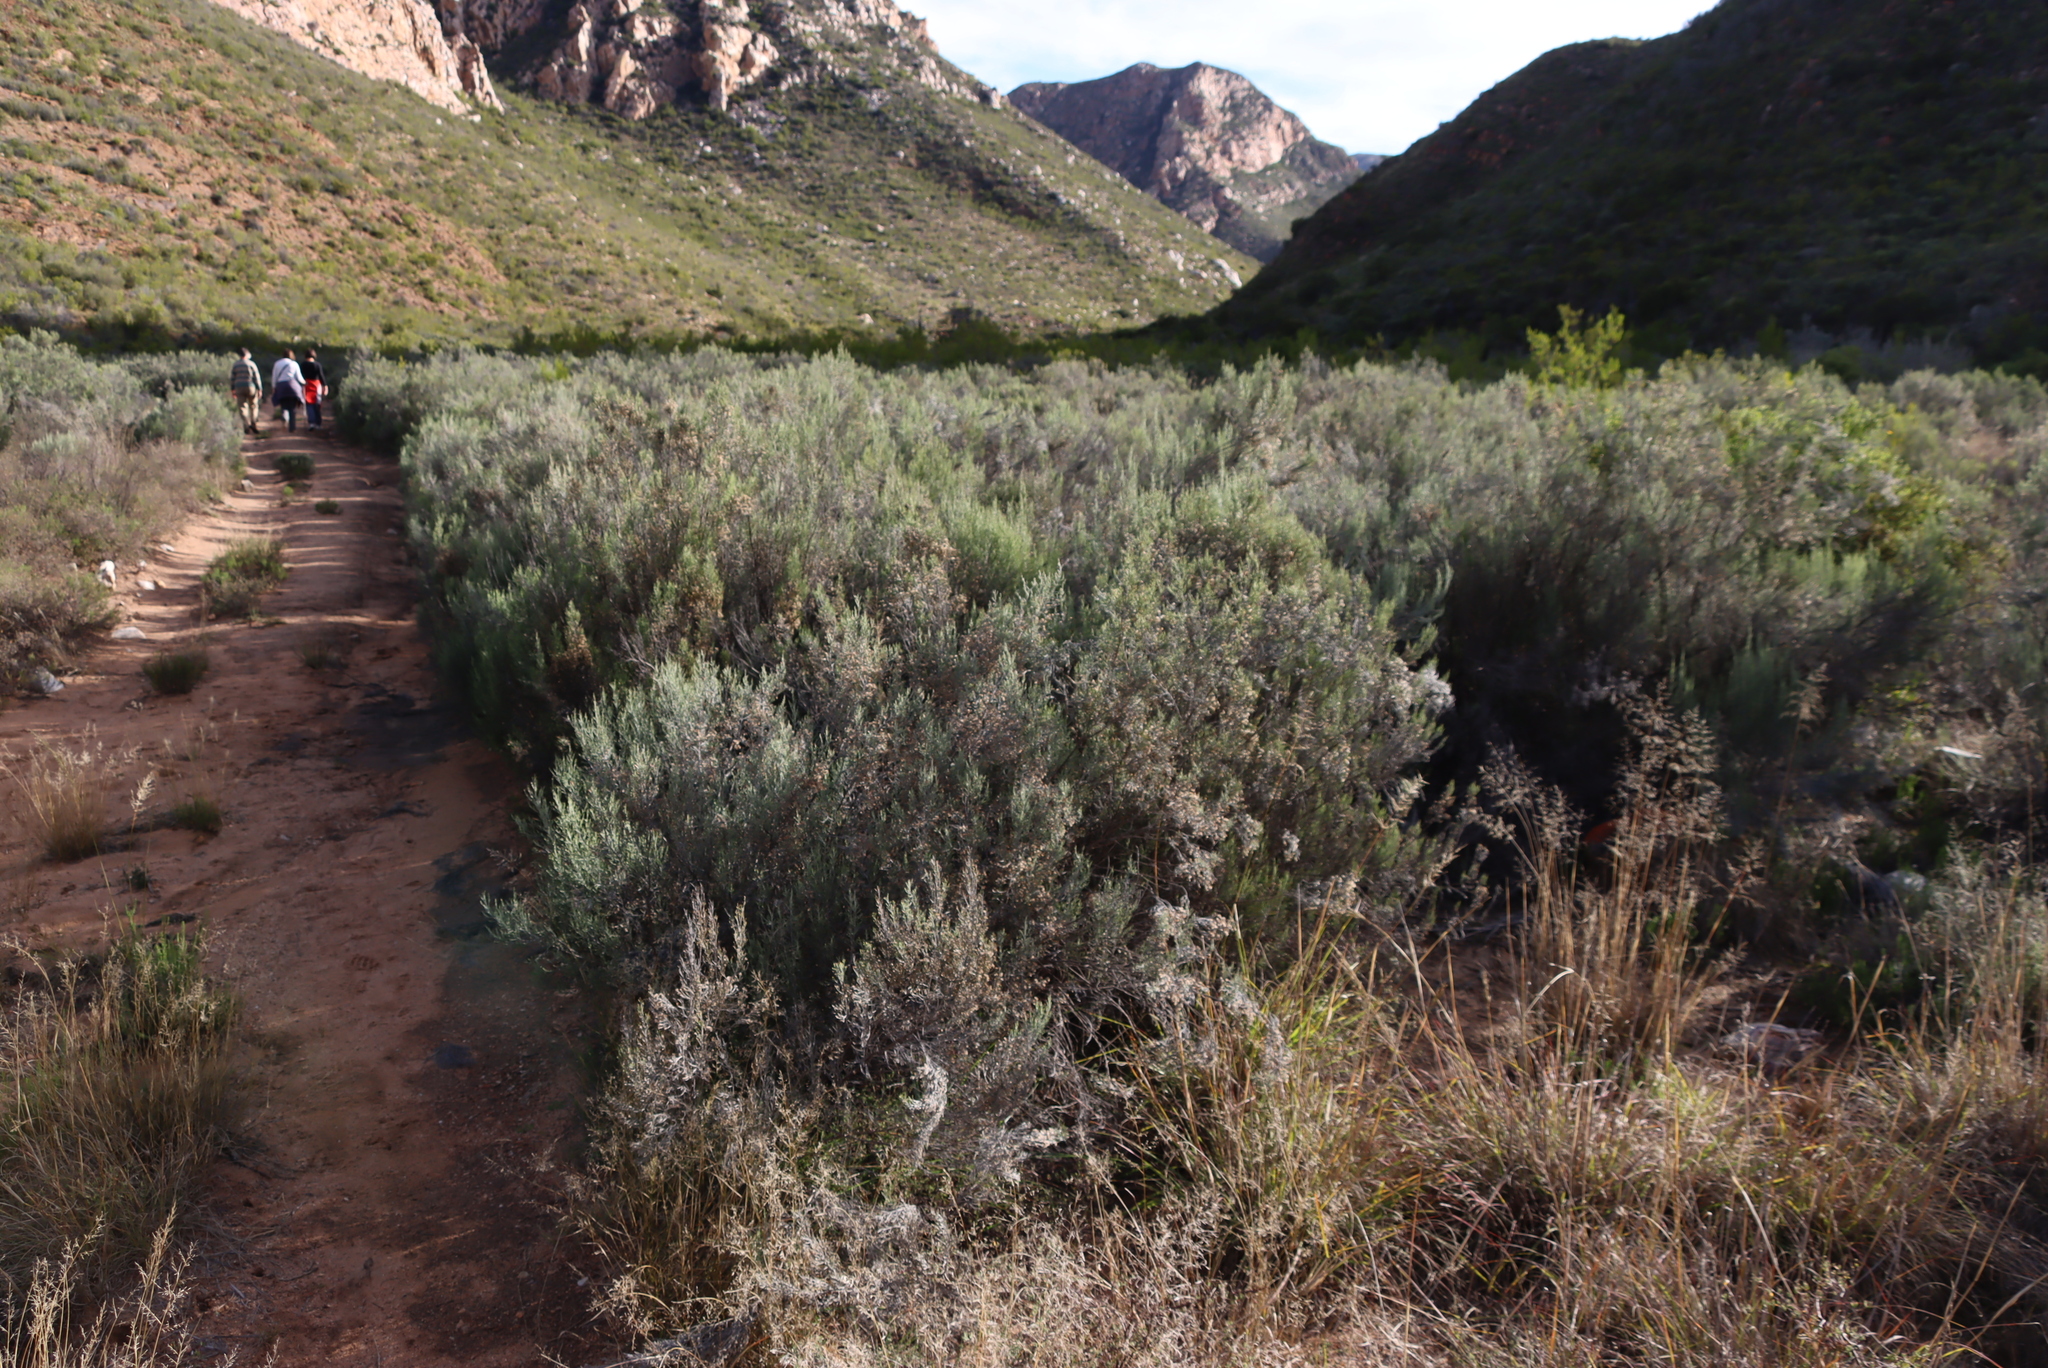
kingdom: Plantae
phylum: Tracheophyta
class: Magnoliopsida
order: Asterales
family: Asteraceae
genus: Dicerothamnus
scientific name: Dicerothamnus rhinocerotis
